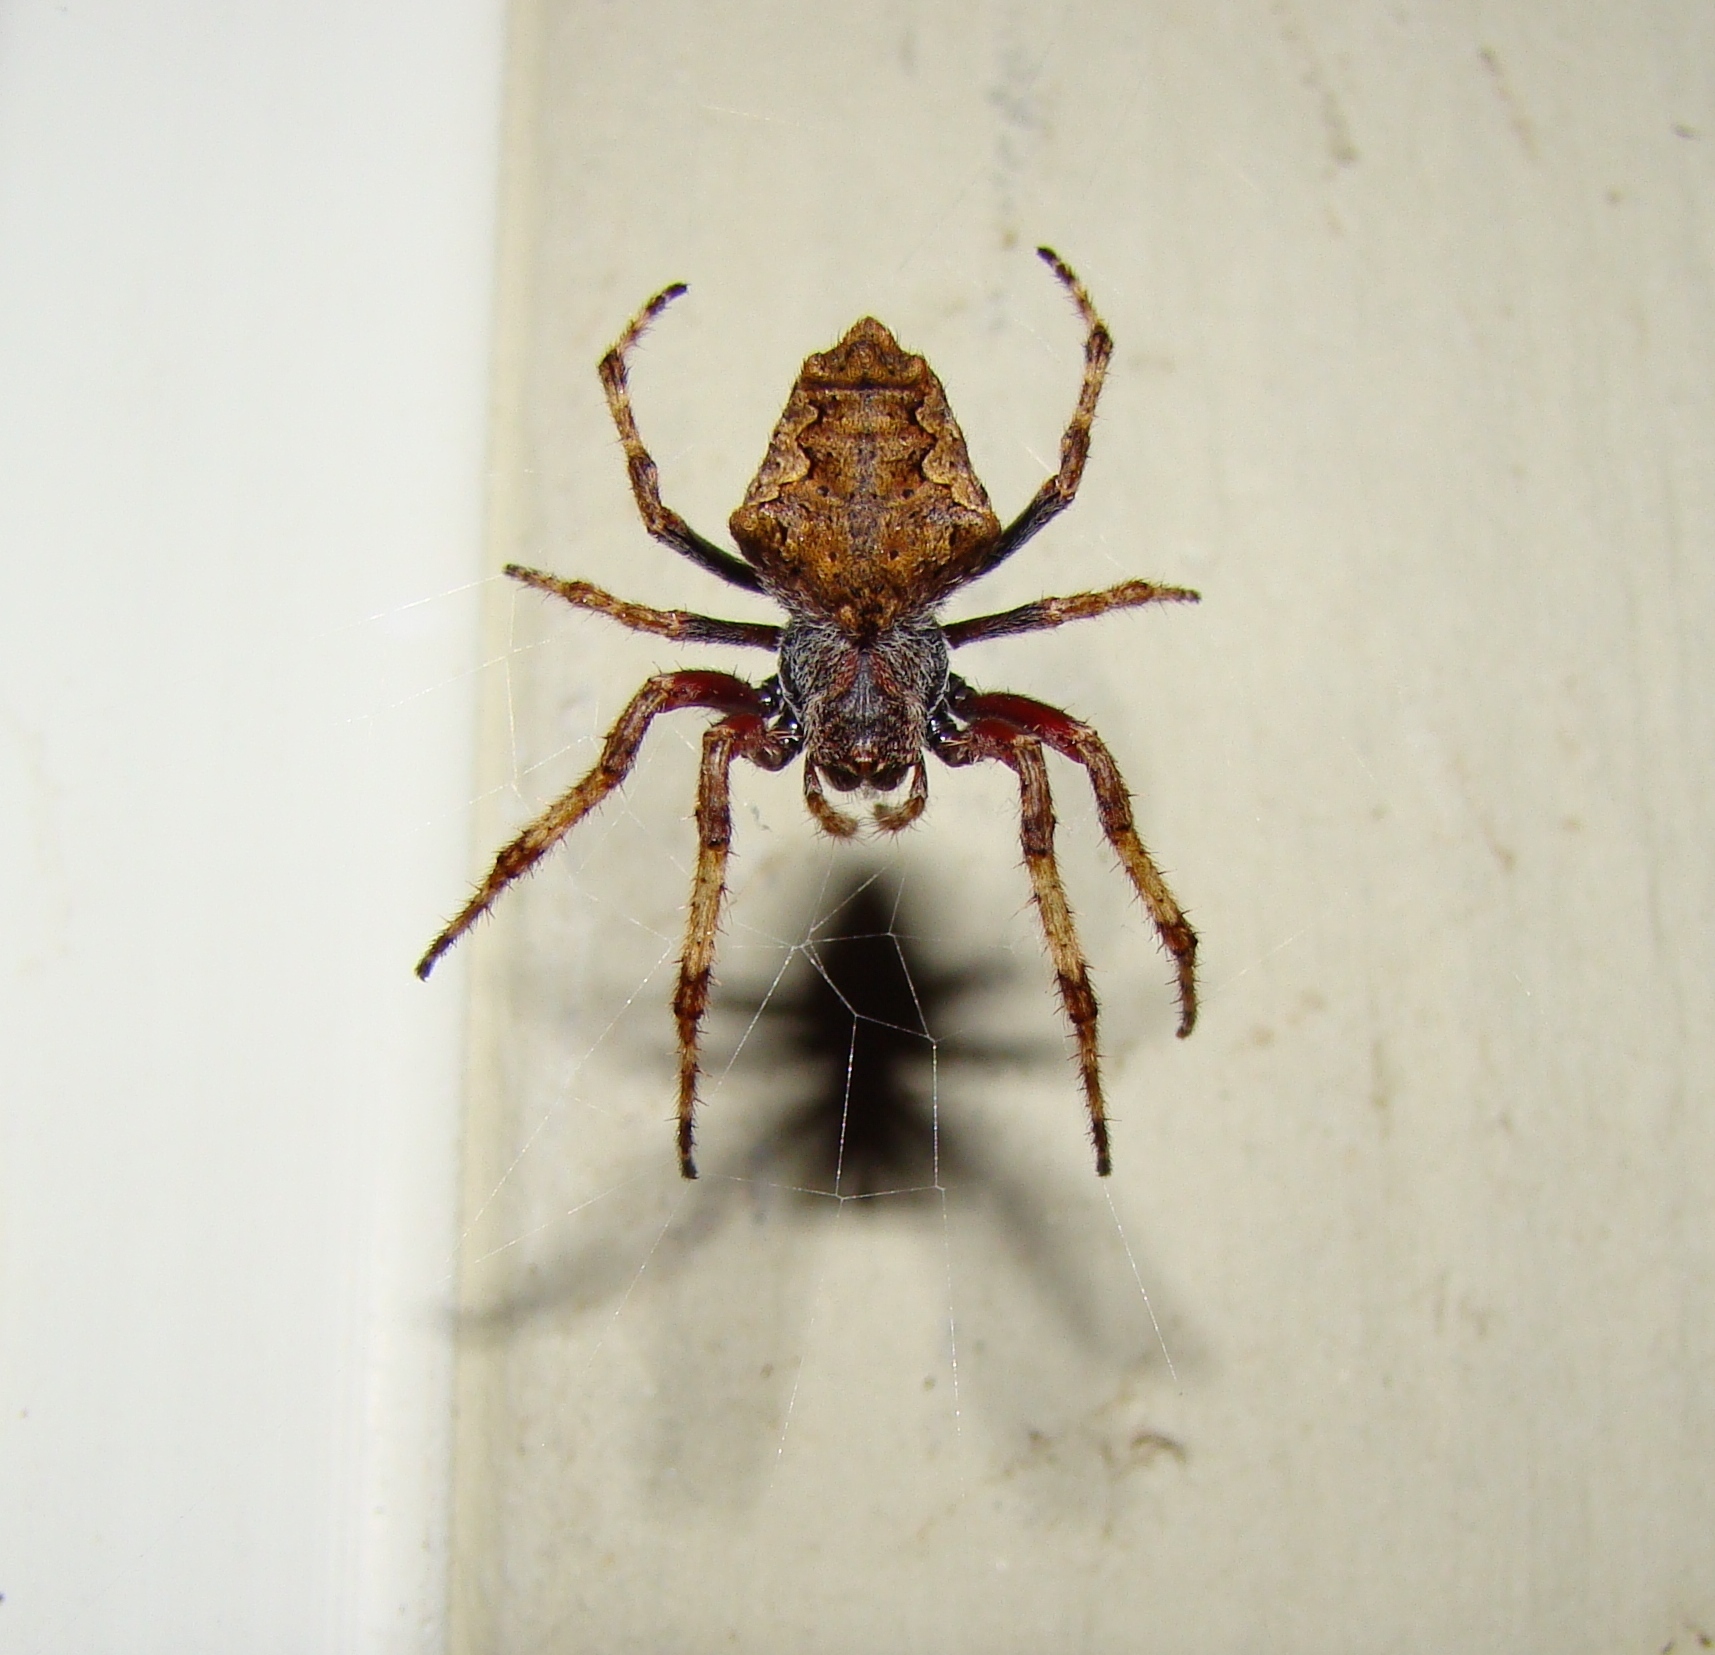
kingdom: Animalia
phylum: Arthropoda
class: Arachnida
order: Araneae
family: Araneidae
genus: Eriophora
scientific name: Eriophora pustulosa
